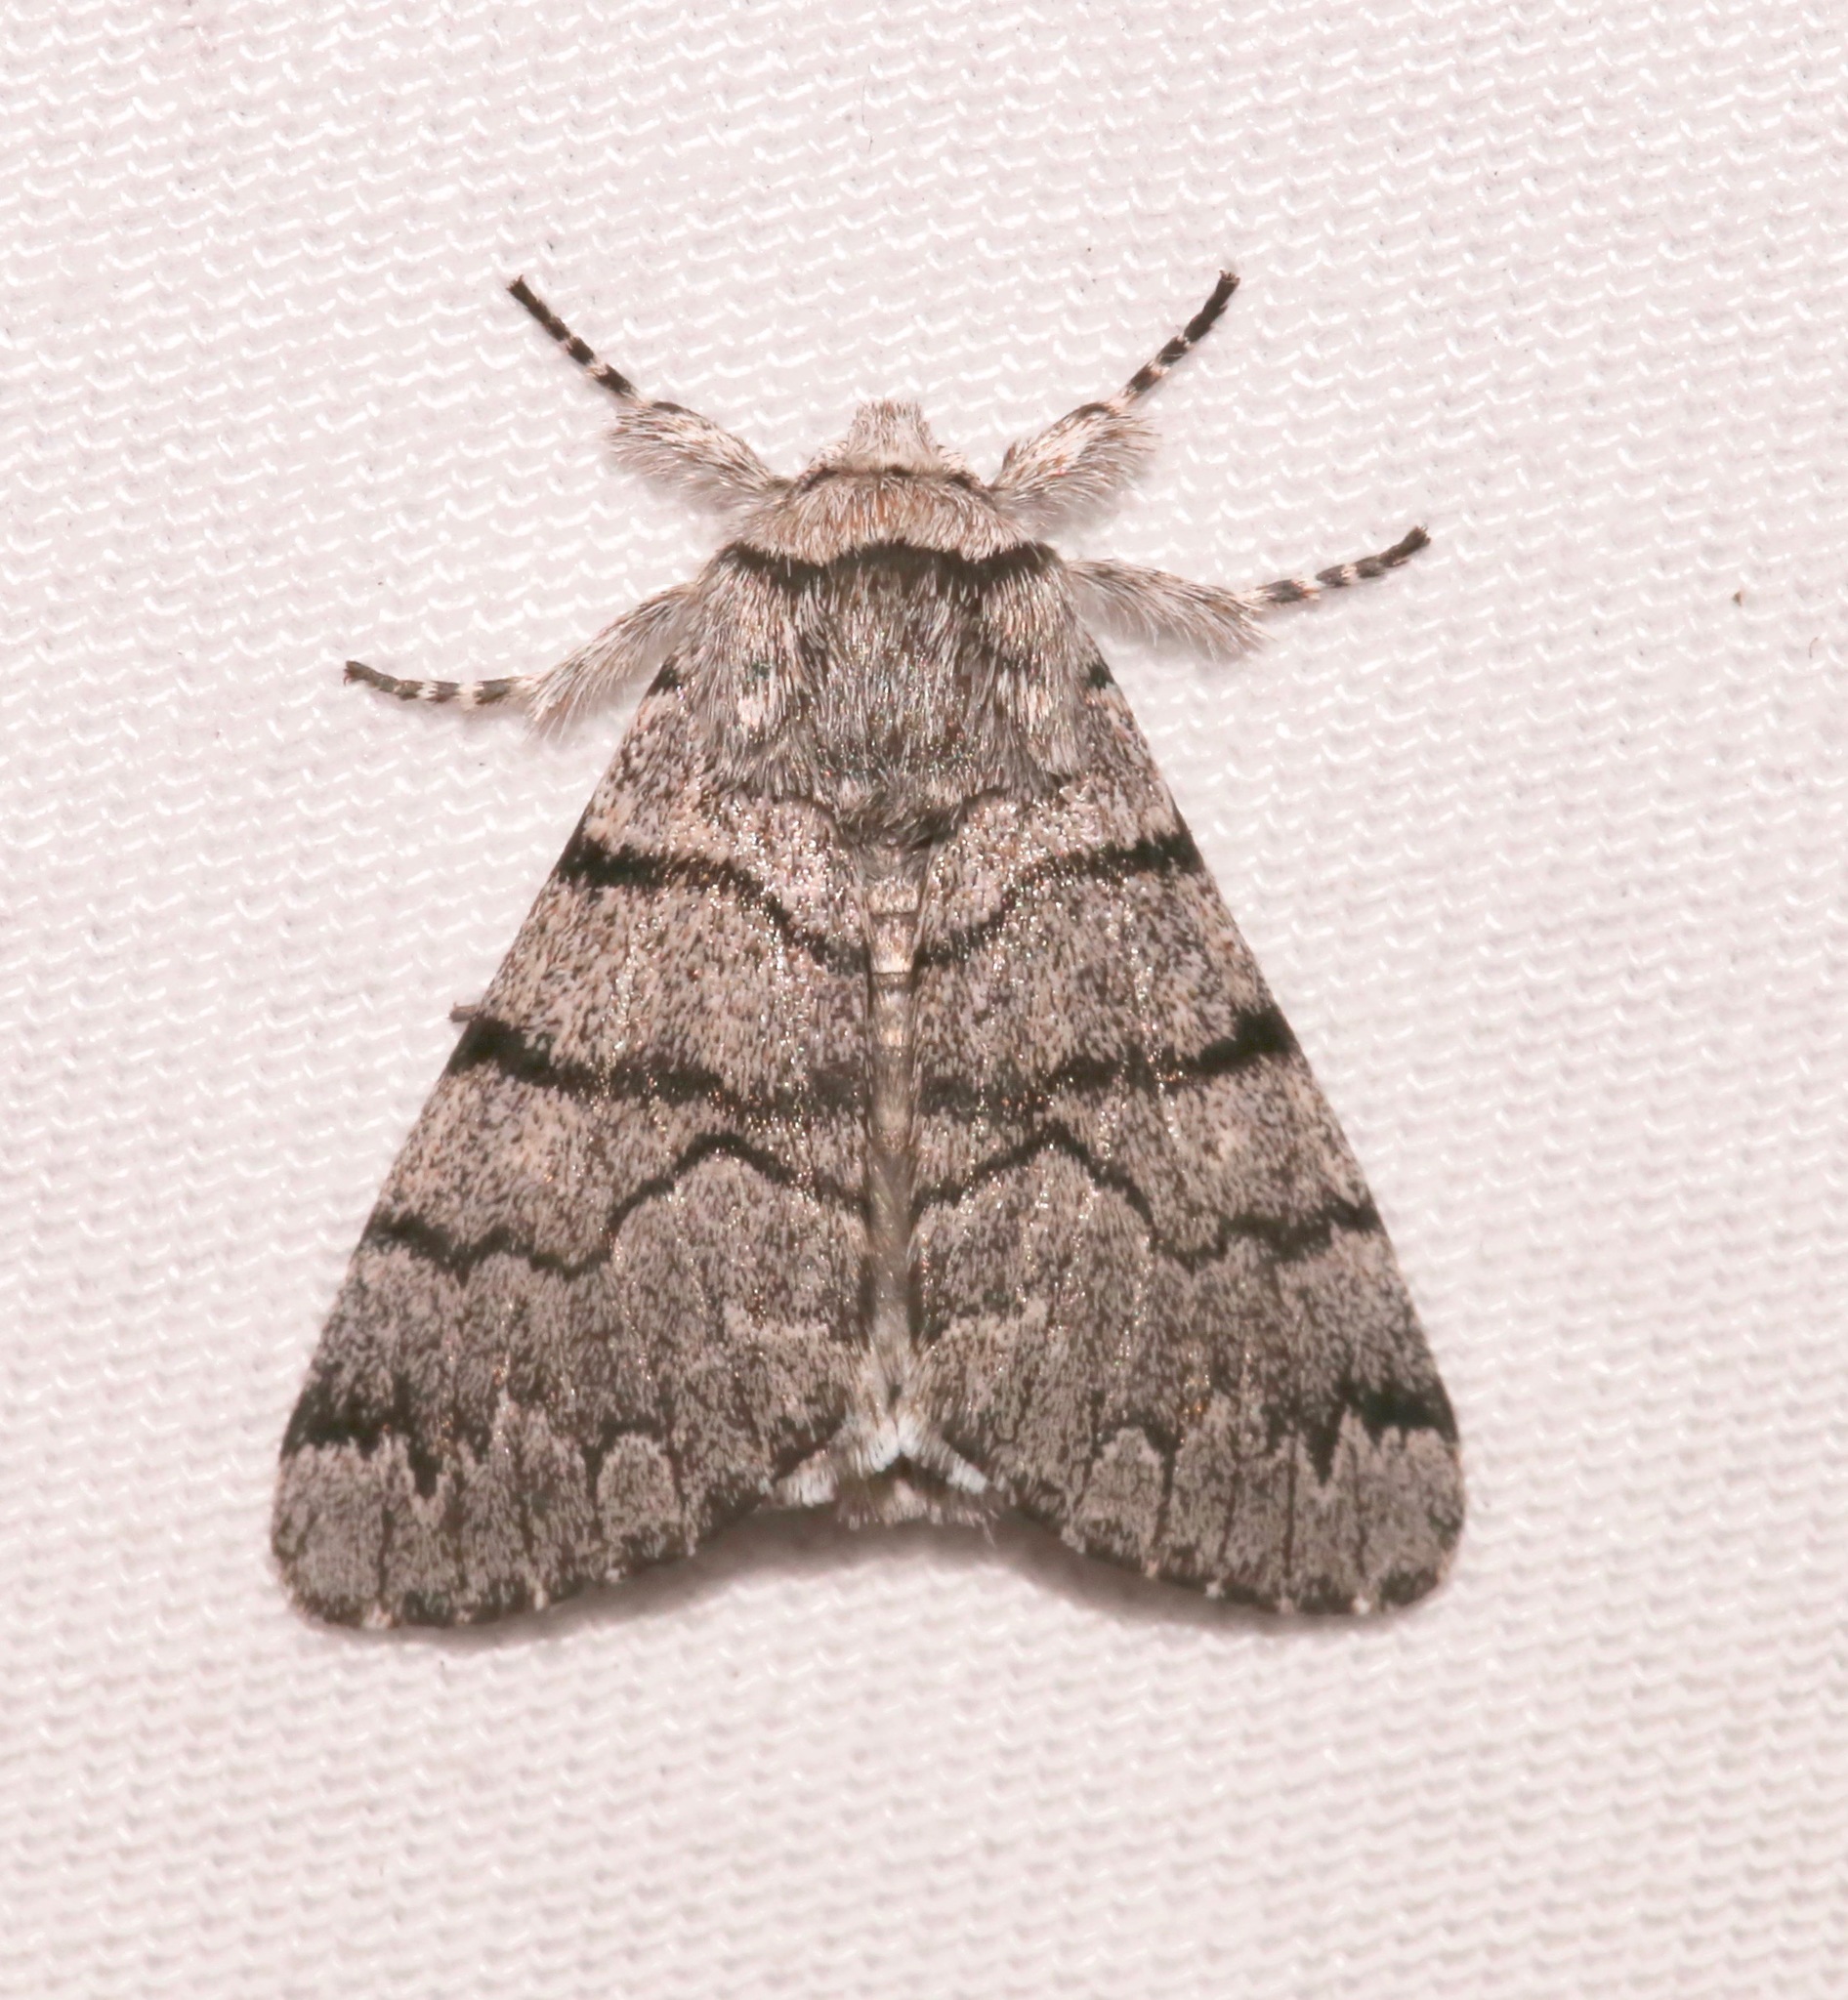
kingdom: Animalia
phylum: Arthropoda
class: Insecta
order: Lepidoptera
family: Noctuidae
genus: Panthea
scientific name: Panthea greyi
